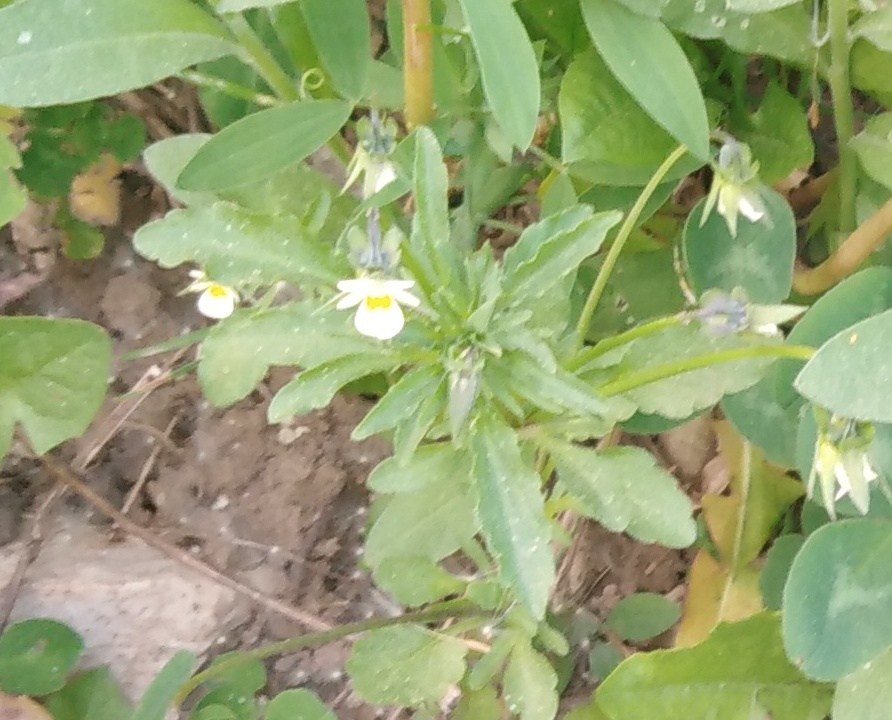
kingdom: Plantae
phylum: Tracheophyta
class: Magnoliopsida
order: Malpighiales
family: Violaceae
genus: Viola
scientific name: Viola arvensis
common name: Field pansy
